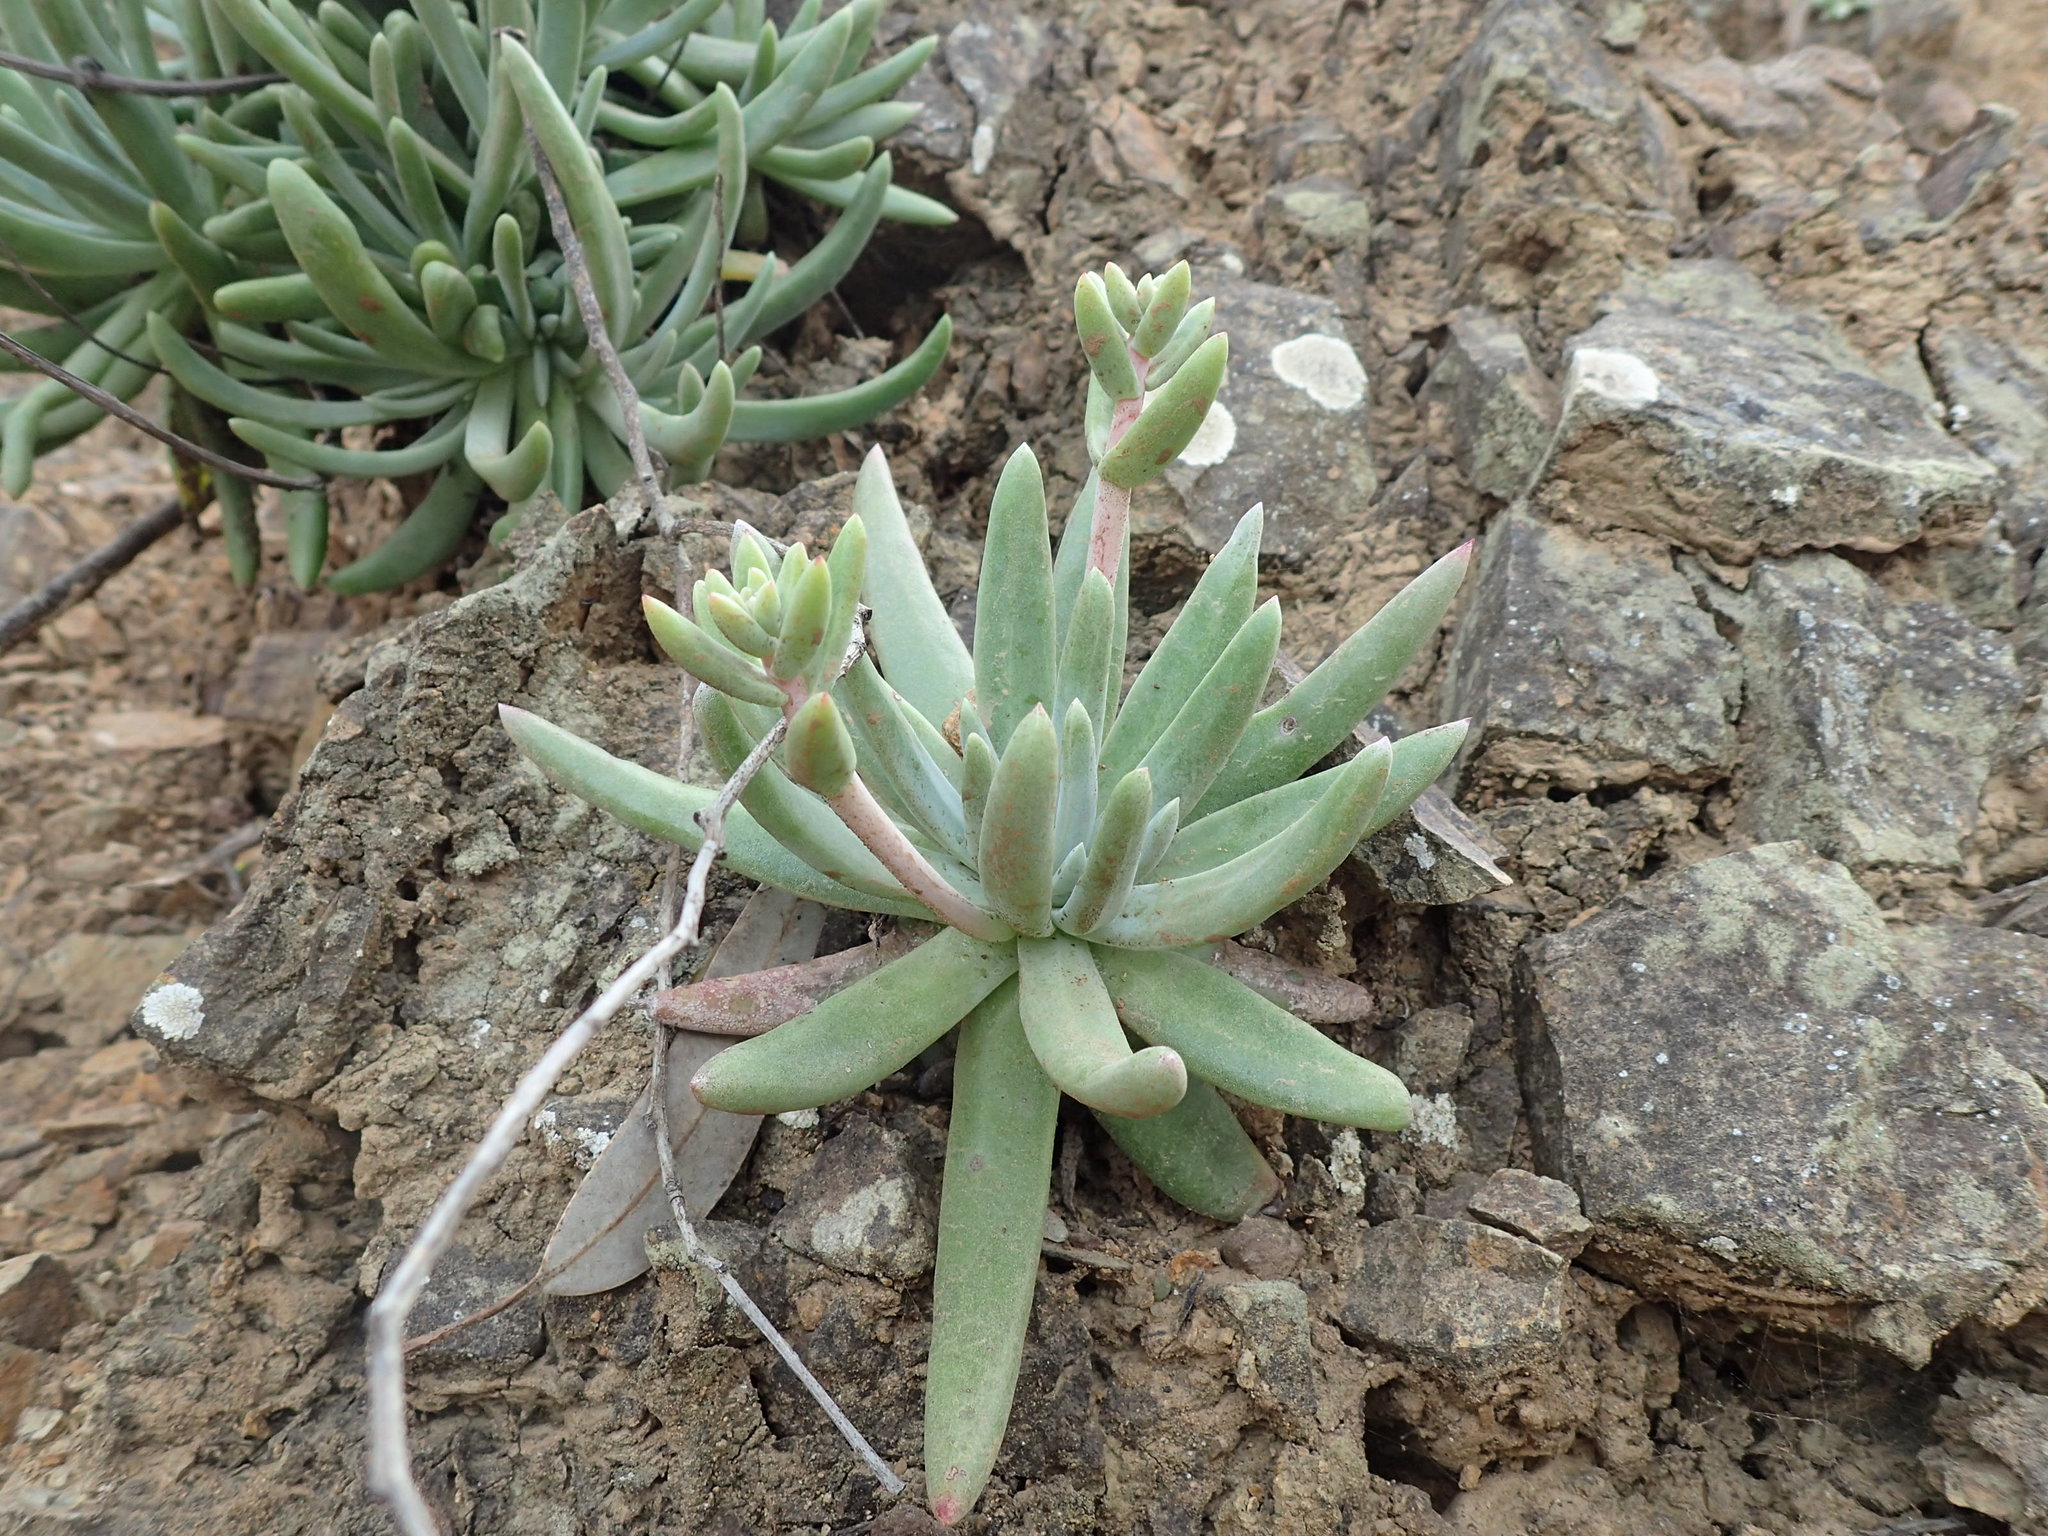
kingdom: Plantae
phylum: Tracheophyta
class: Magnoliopsida
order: Saxifragales
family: Crassulaceae
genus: Dudleya
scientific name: Dudleya virens
